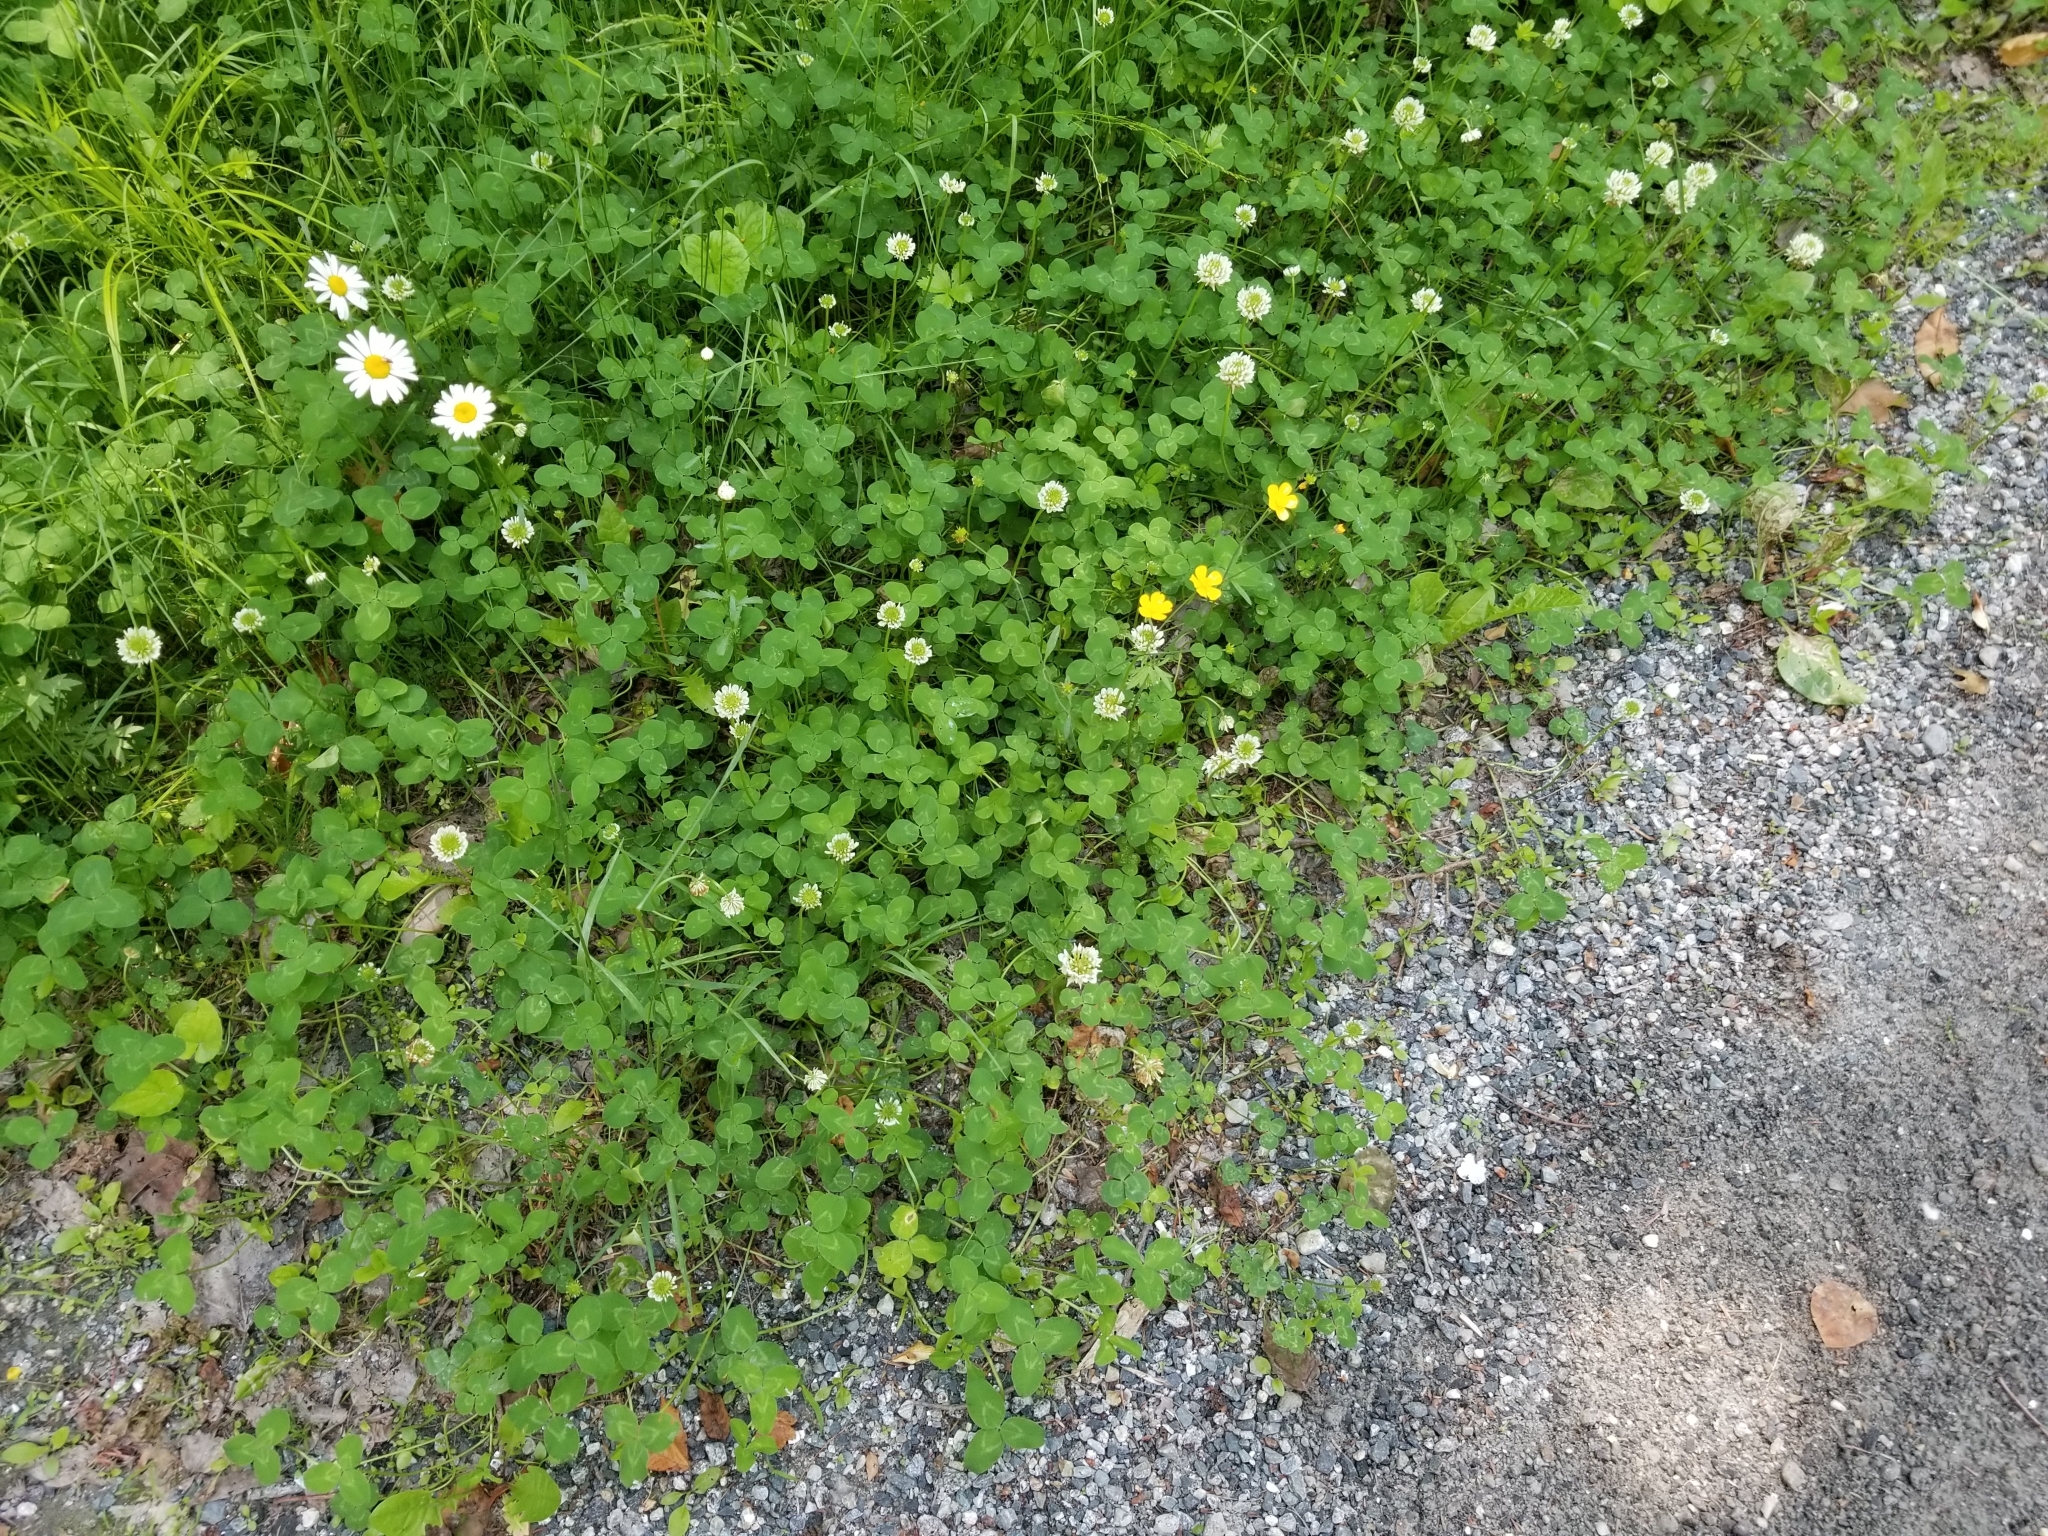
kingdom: Plantae
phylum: Tracheophyta
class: Magnoliopsida
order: Fabales
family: Fabaceae
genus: Trifolium
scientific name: Trifolium repens
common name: White clover
